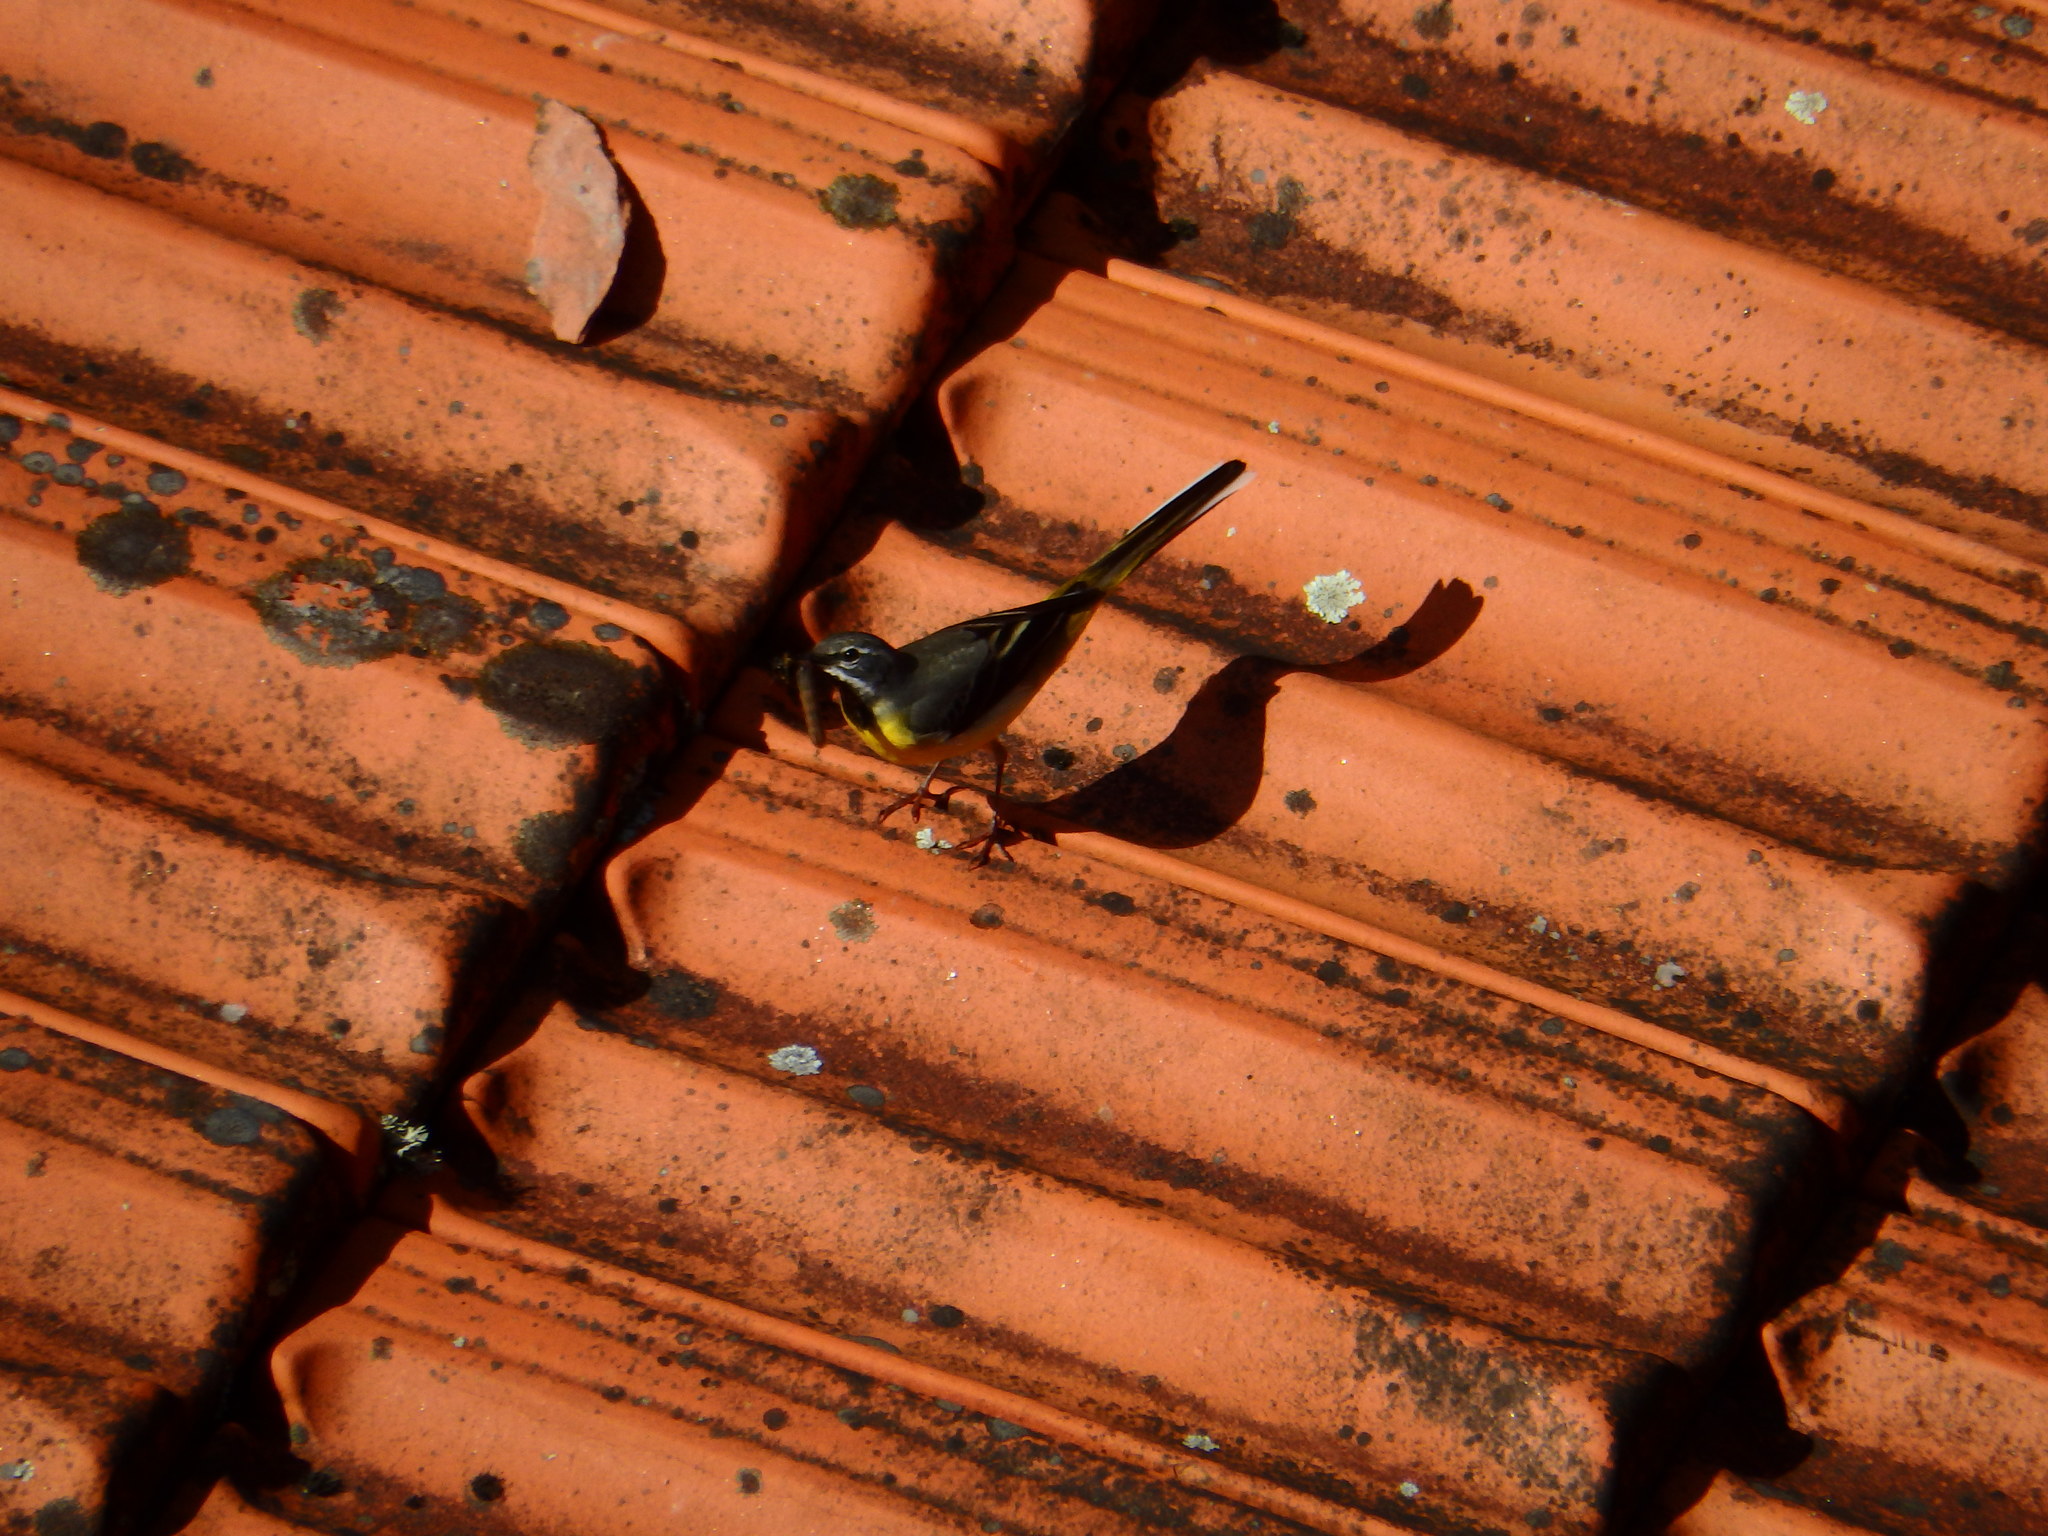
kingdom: Animalia
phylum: Chordata
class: Aves
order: Passeriformes
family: Motacillidae
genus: Motacilla
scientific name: Motacilla cinerea
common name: Grey wagtail
